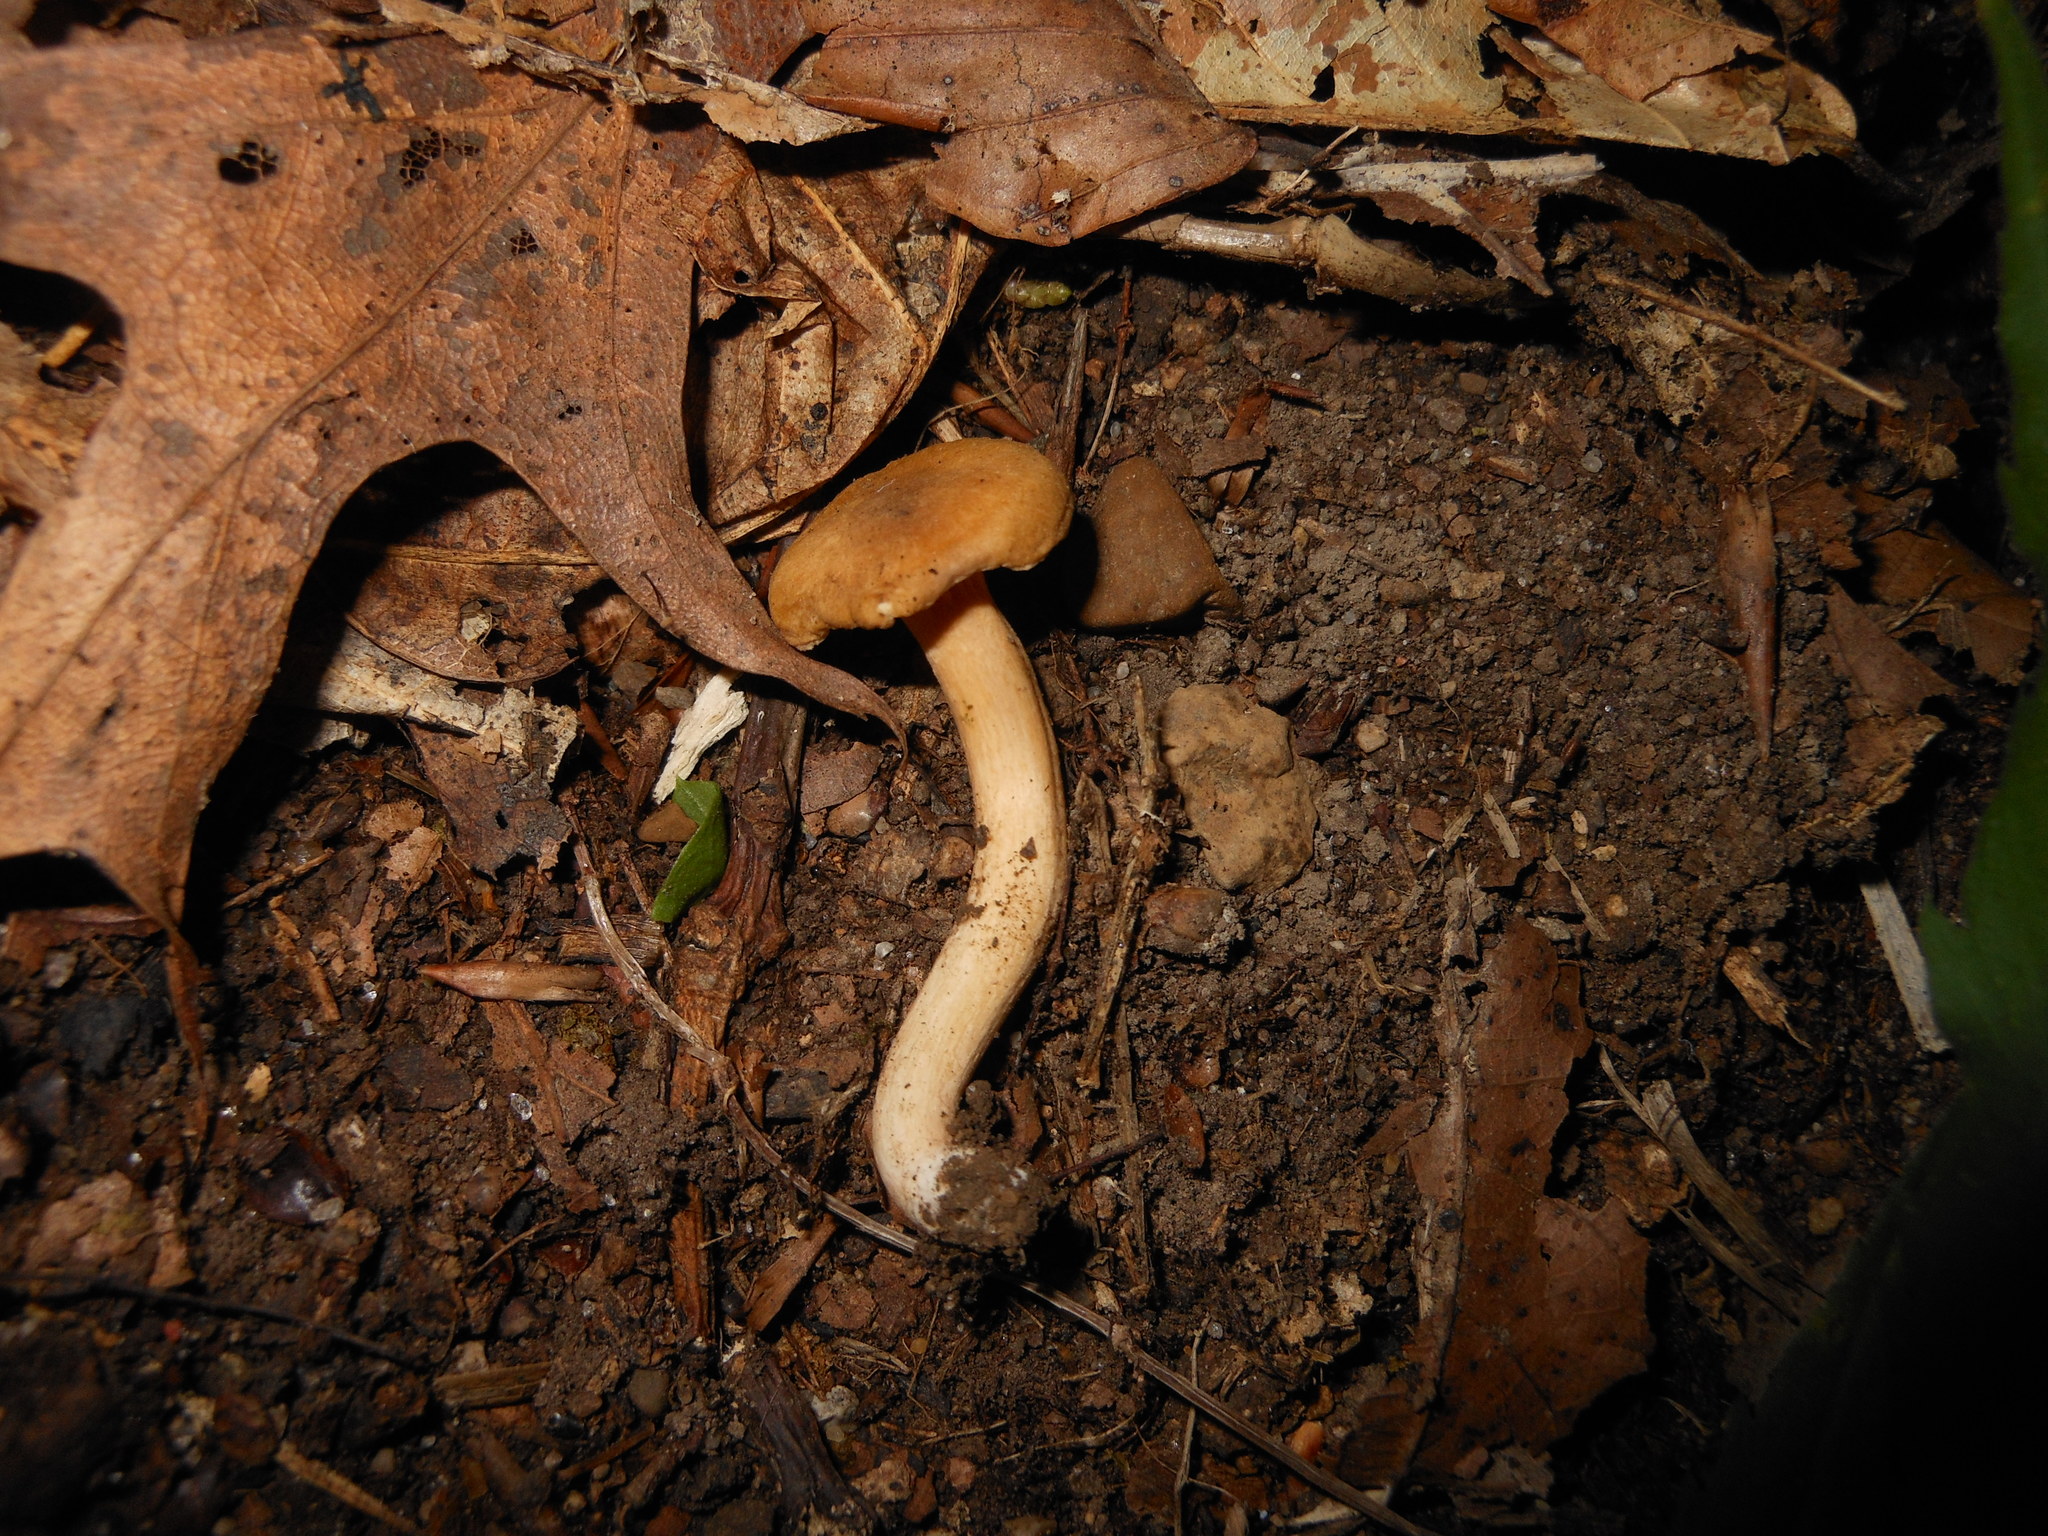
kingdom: Fungi
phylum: Basidiomycota
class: Agaricomycetes
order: Cantharellales
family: Hydnaceae
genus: Cantharellus
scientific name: Cantharellus appalachiensis
